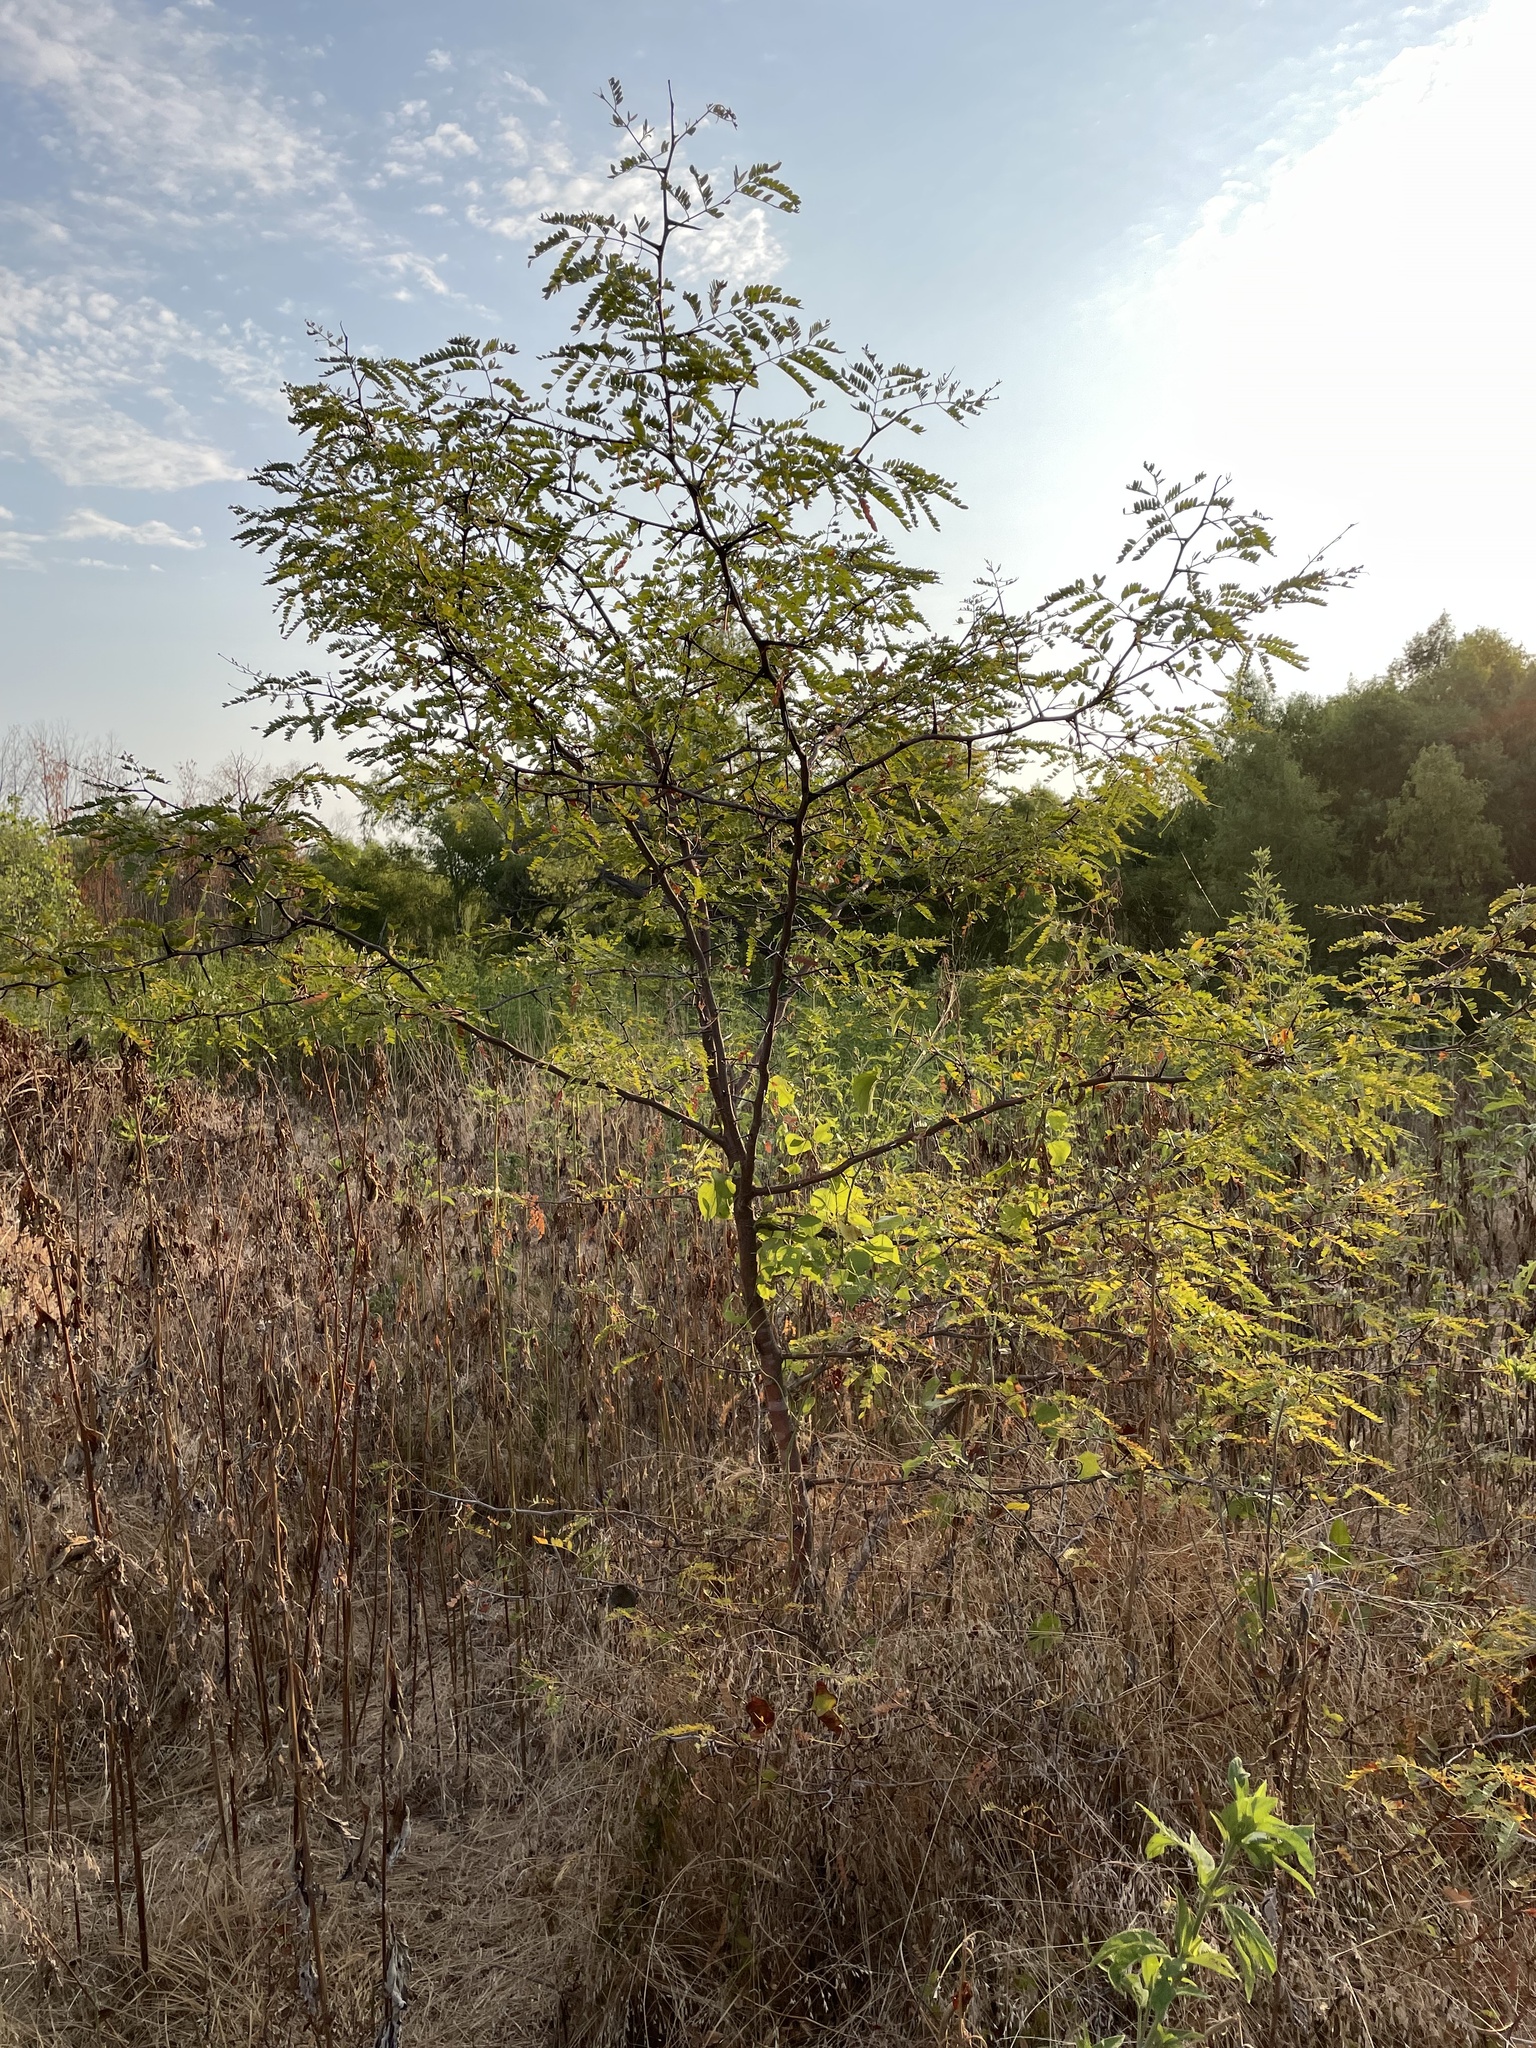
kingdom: Plantae
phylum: Tracheophyta
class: Magnoliopsida
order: Fabales
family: Fabaceae
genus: Gleditsia
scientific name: Gleditsia triacanthos
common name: Common honeylocust
